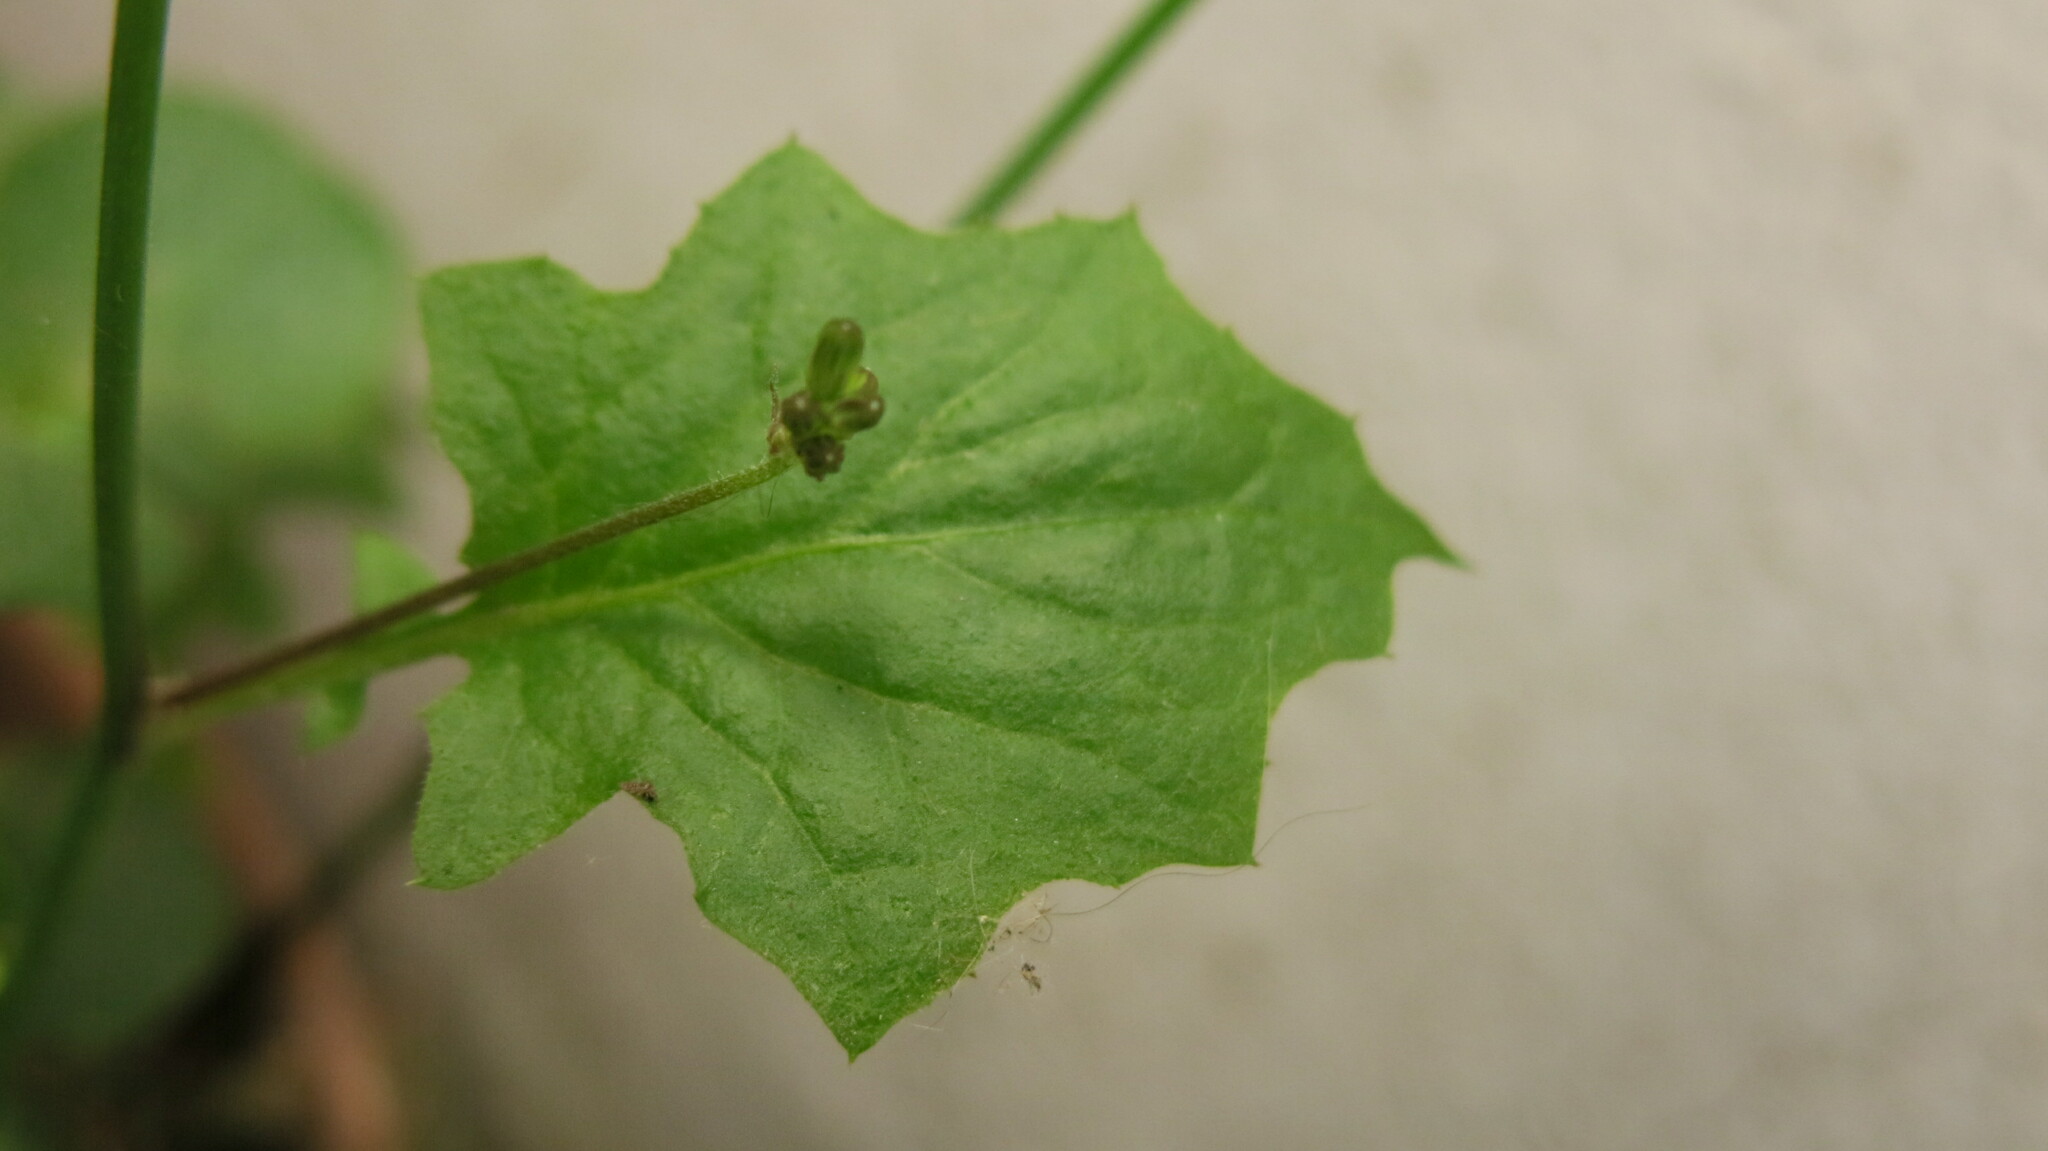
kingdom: Plantae
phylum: Tracheophyta
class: Magnoliopsida
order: Asterales
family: Asteraceae
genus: Youngia
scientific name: Youngia japonica
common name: Oriental false hawksbeard
